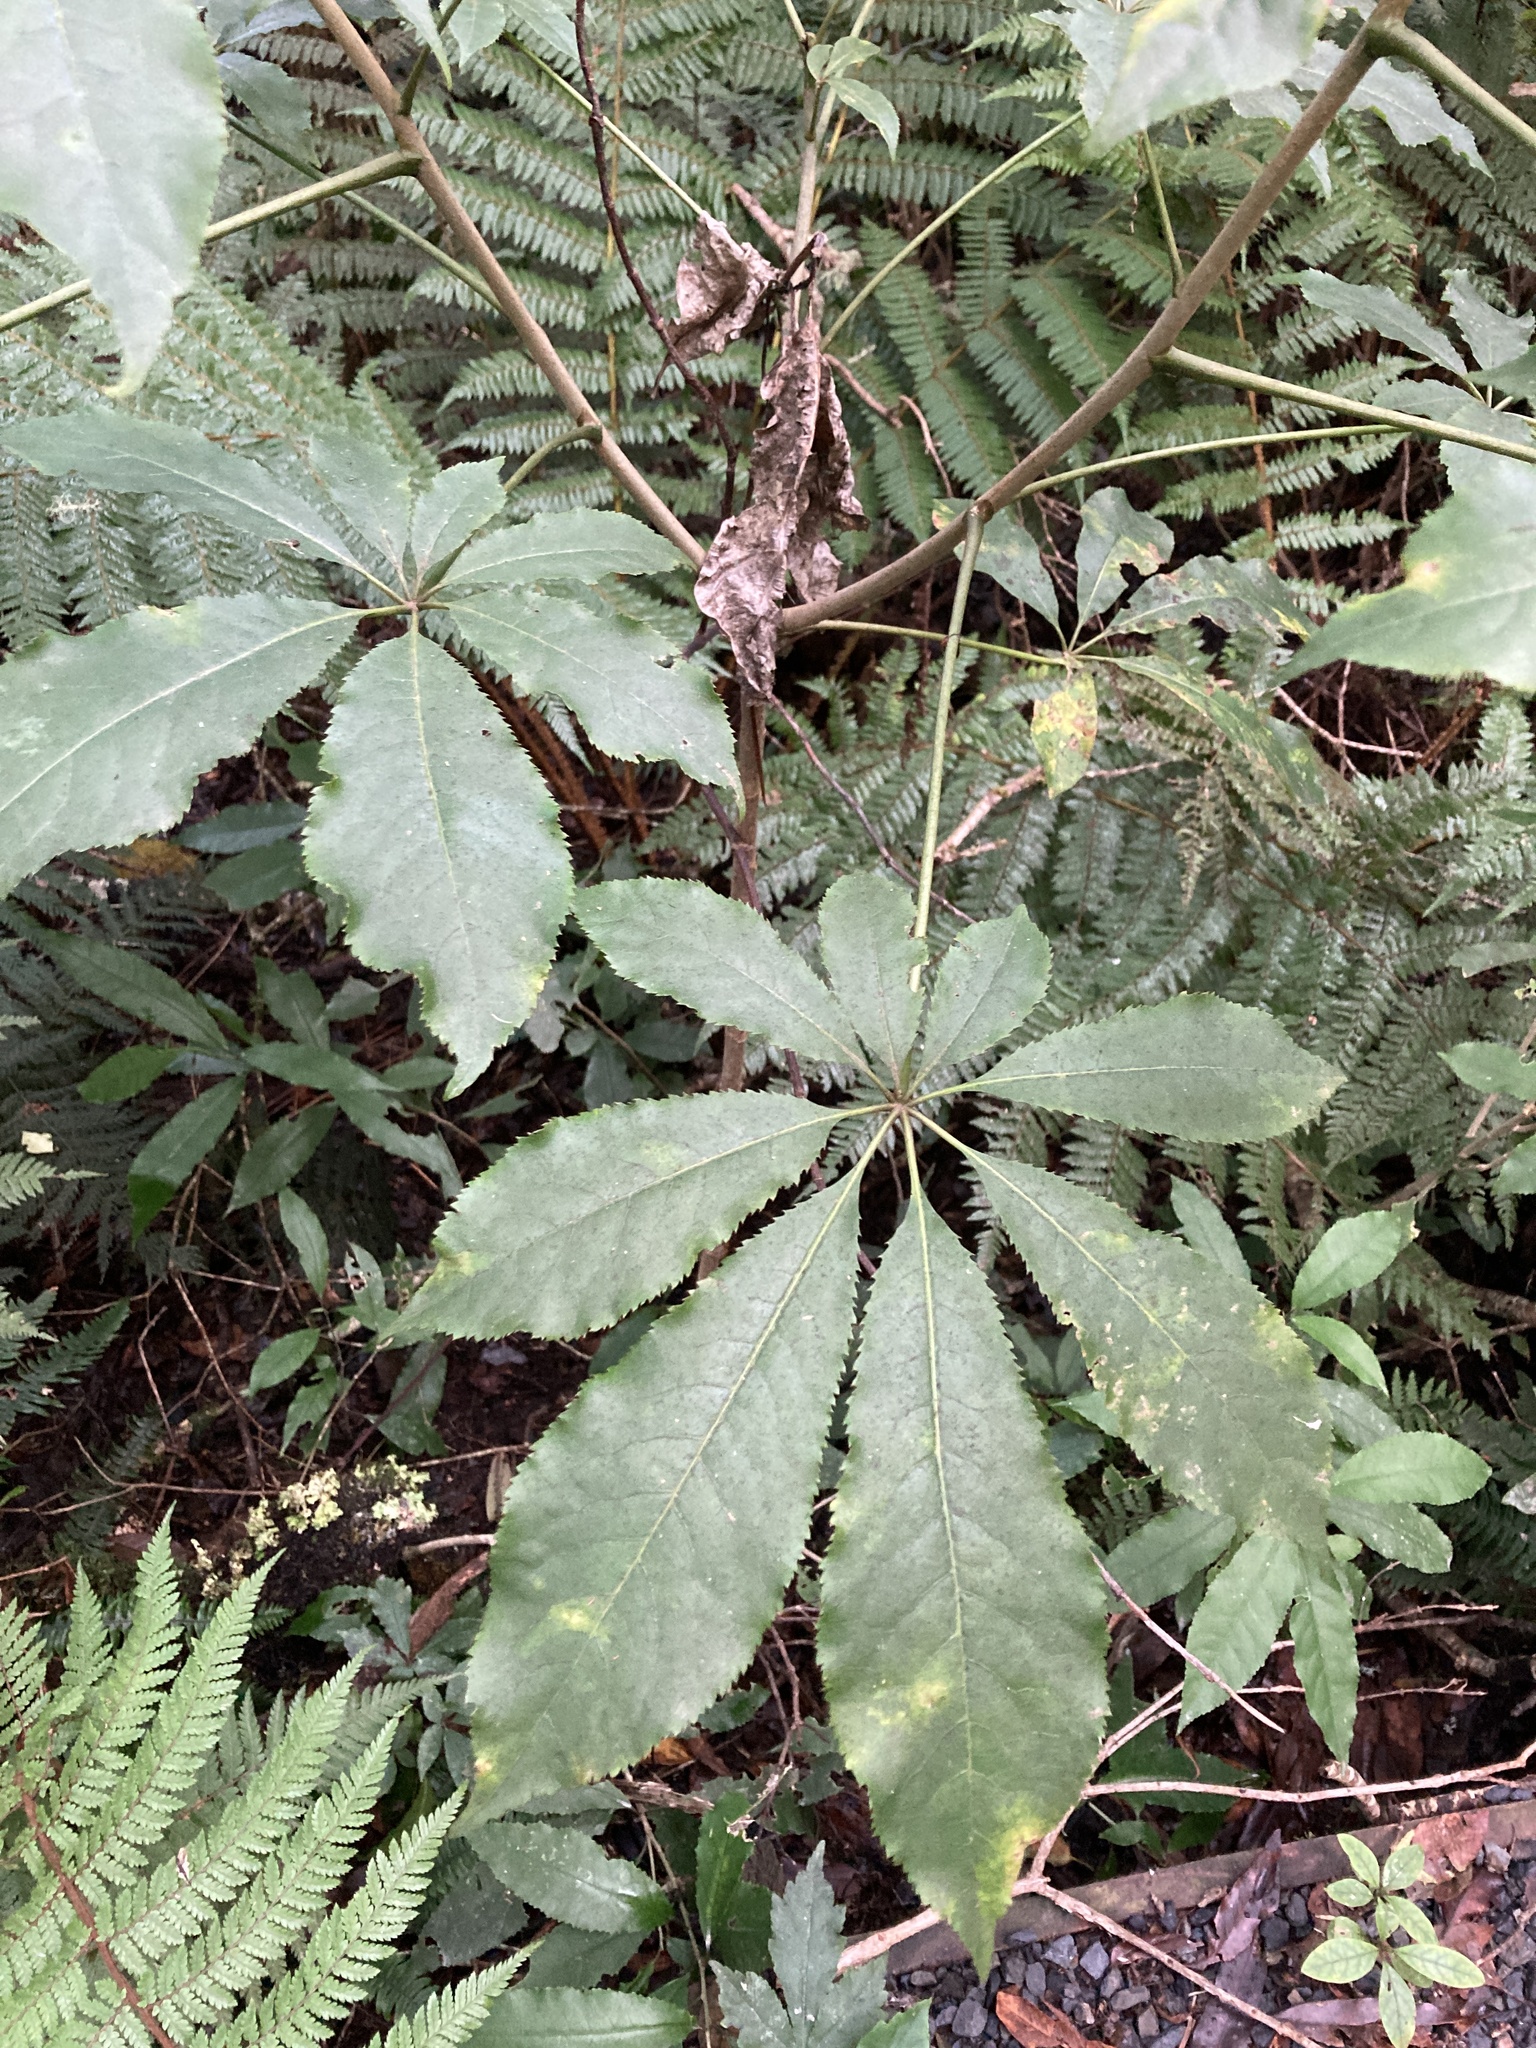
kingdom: Plantae
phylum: Tracheophyta
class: Magnoliopsida
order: Apiales
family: Araliaceae
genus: Schefflera
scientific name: Schefflera digitata
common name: Pate
